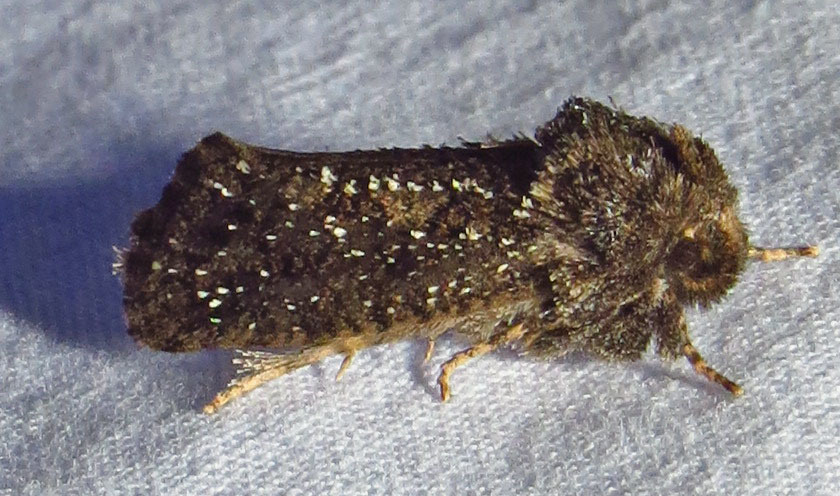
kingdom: Animalia
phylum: Arthropoda
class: Insecta
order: Lepidoptera
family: Tineidae
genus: Acrolophus
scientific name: Acrolophus arcanella
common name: Arcane grass tubeworm moth
